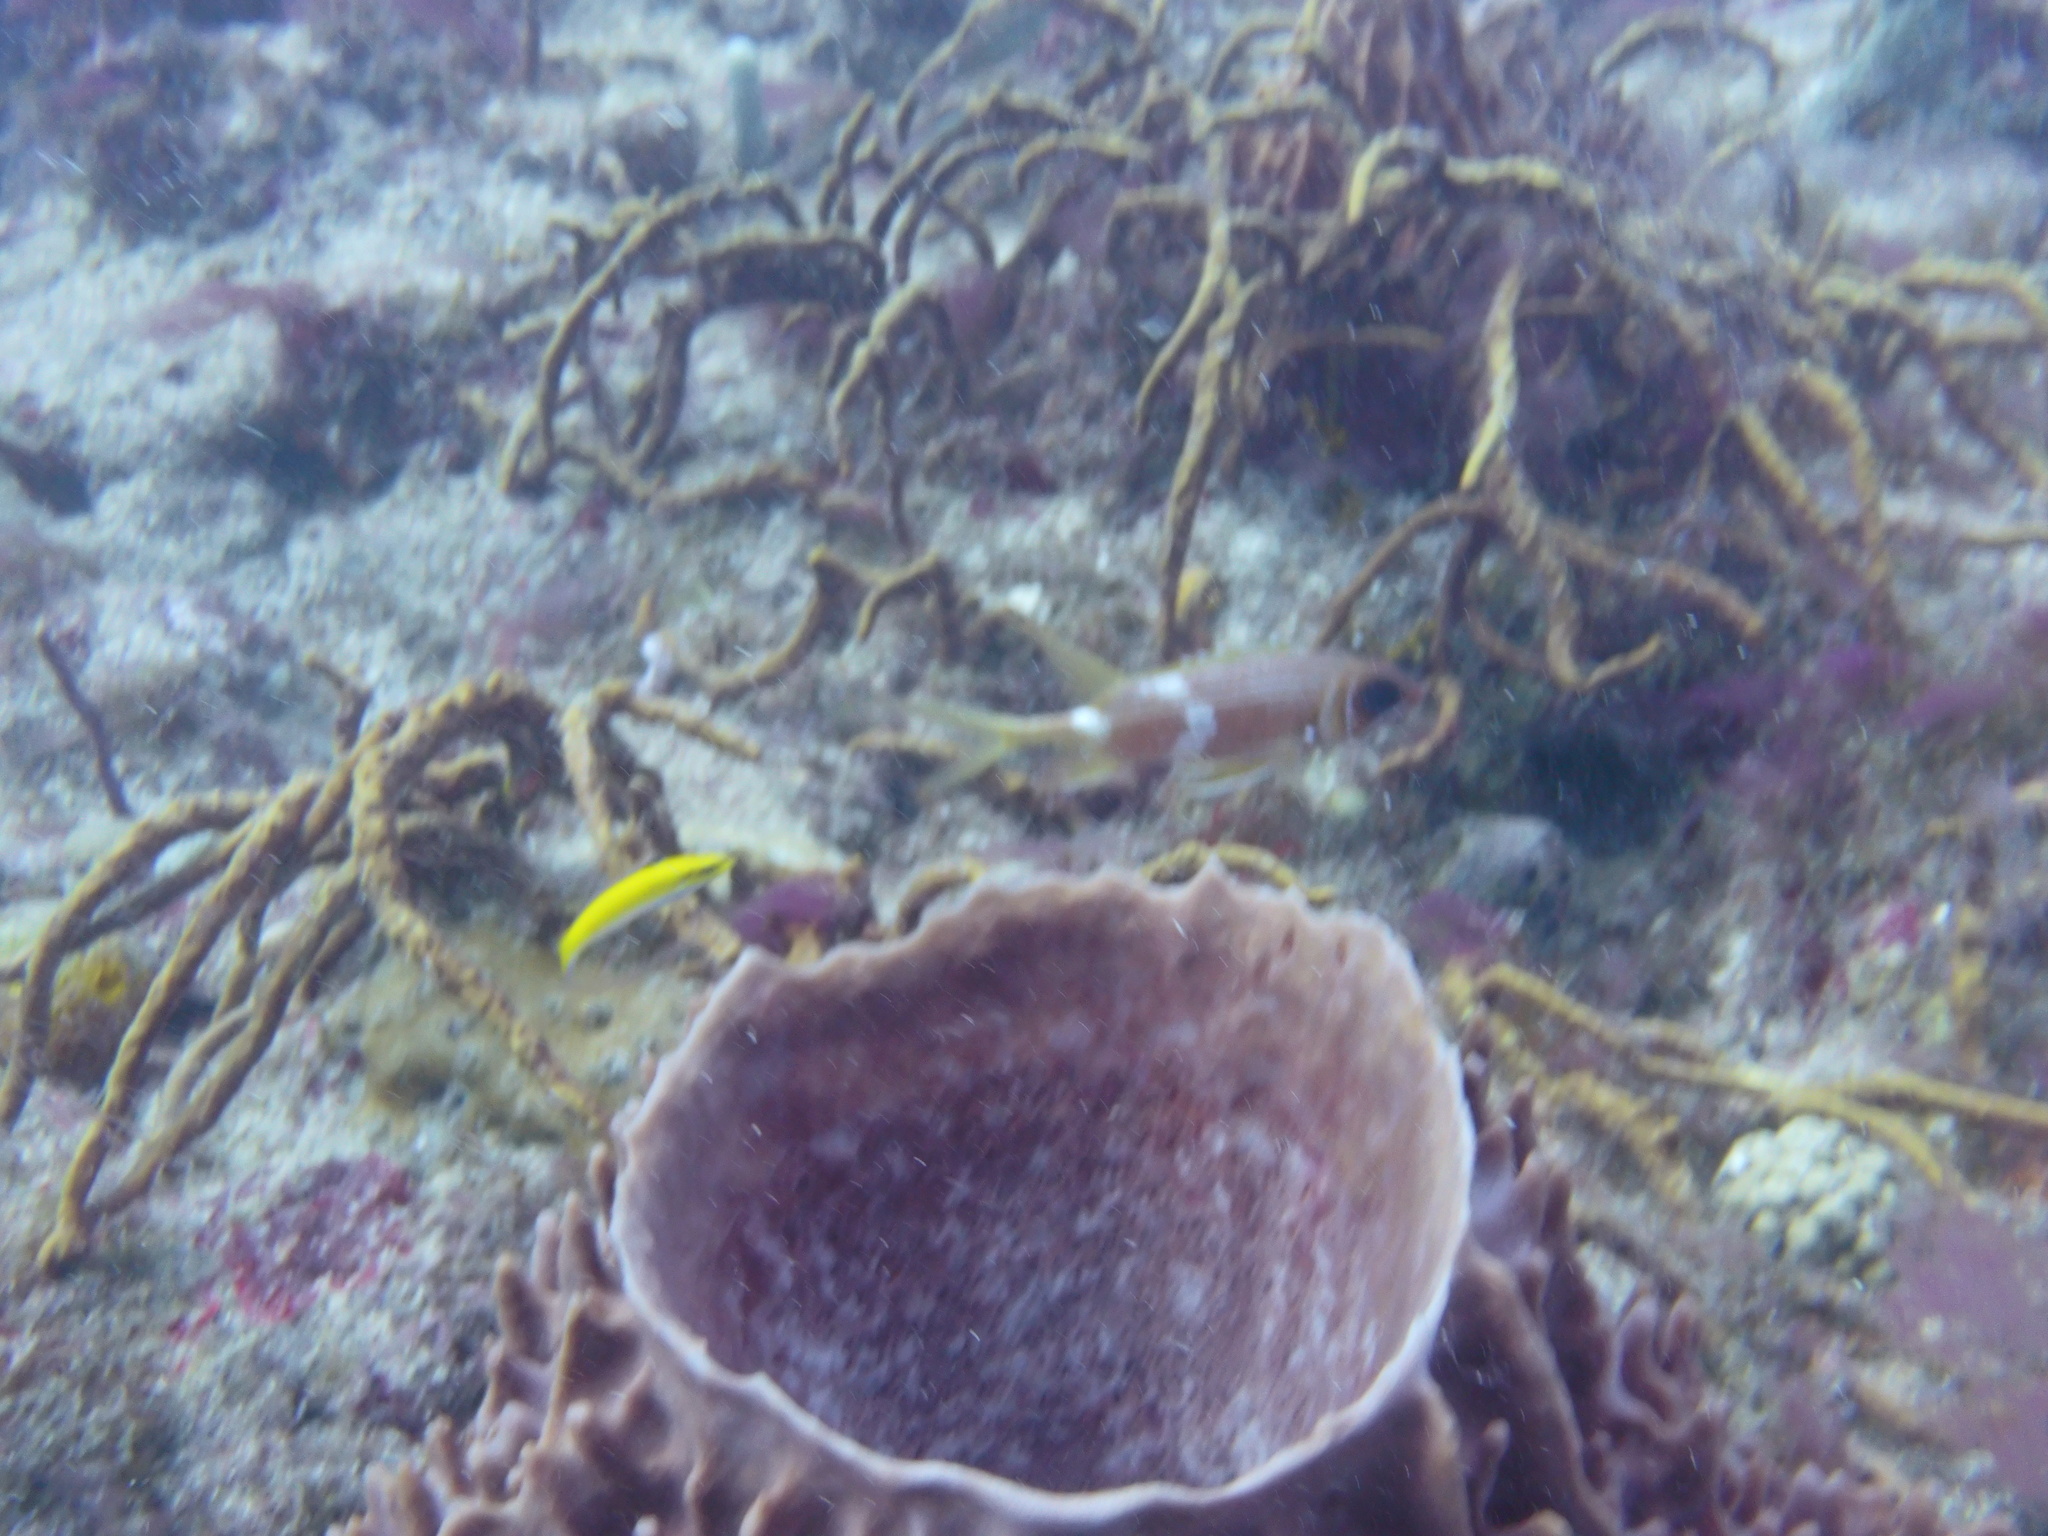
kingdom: Animalia
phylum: Chordata
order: Beryciformes
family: Holocentridae
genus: Holocentrus
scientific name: Holocentrus adscensionis
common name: Squirrelfish
